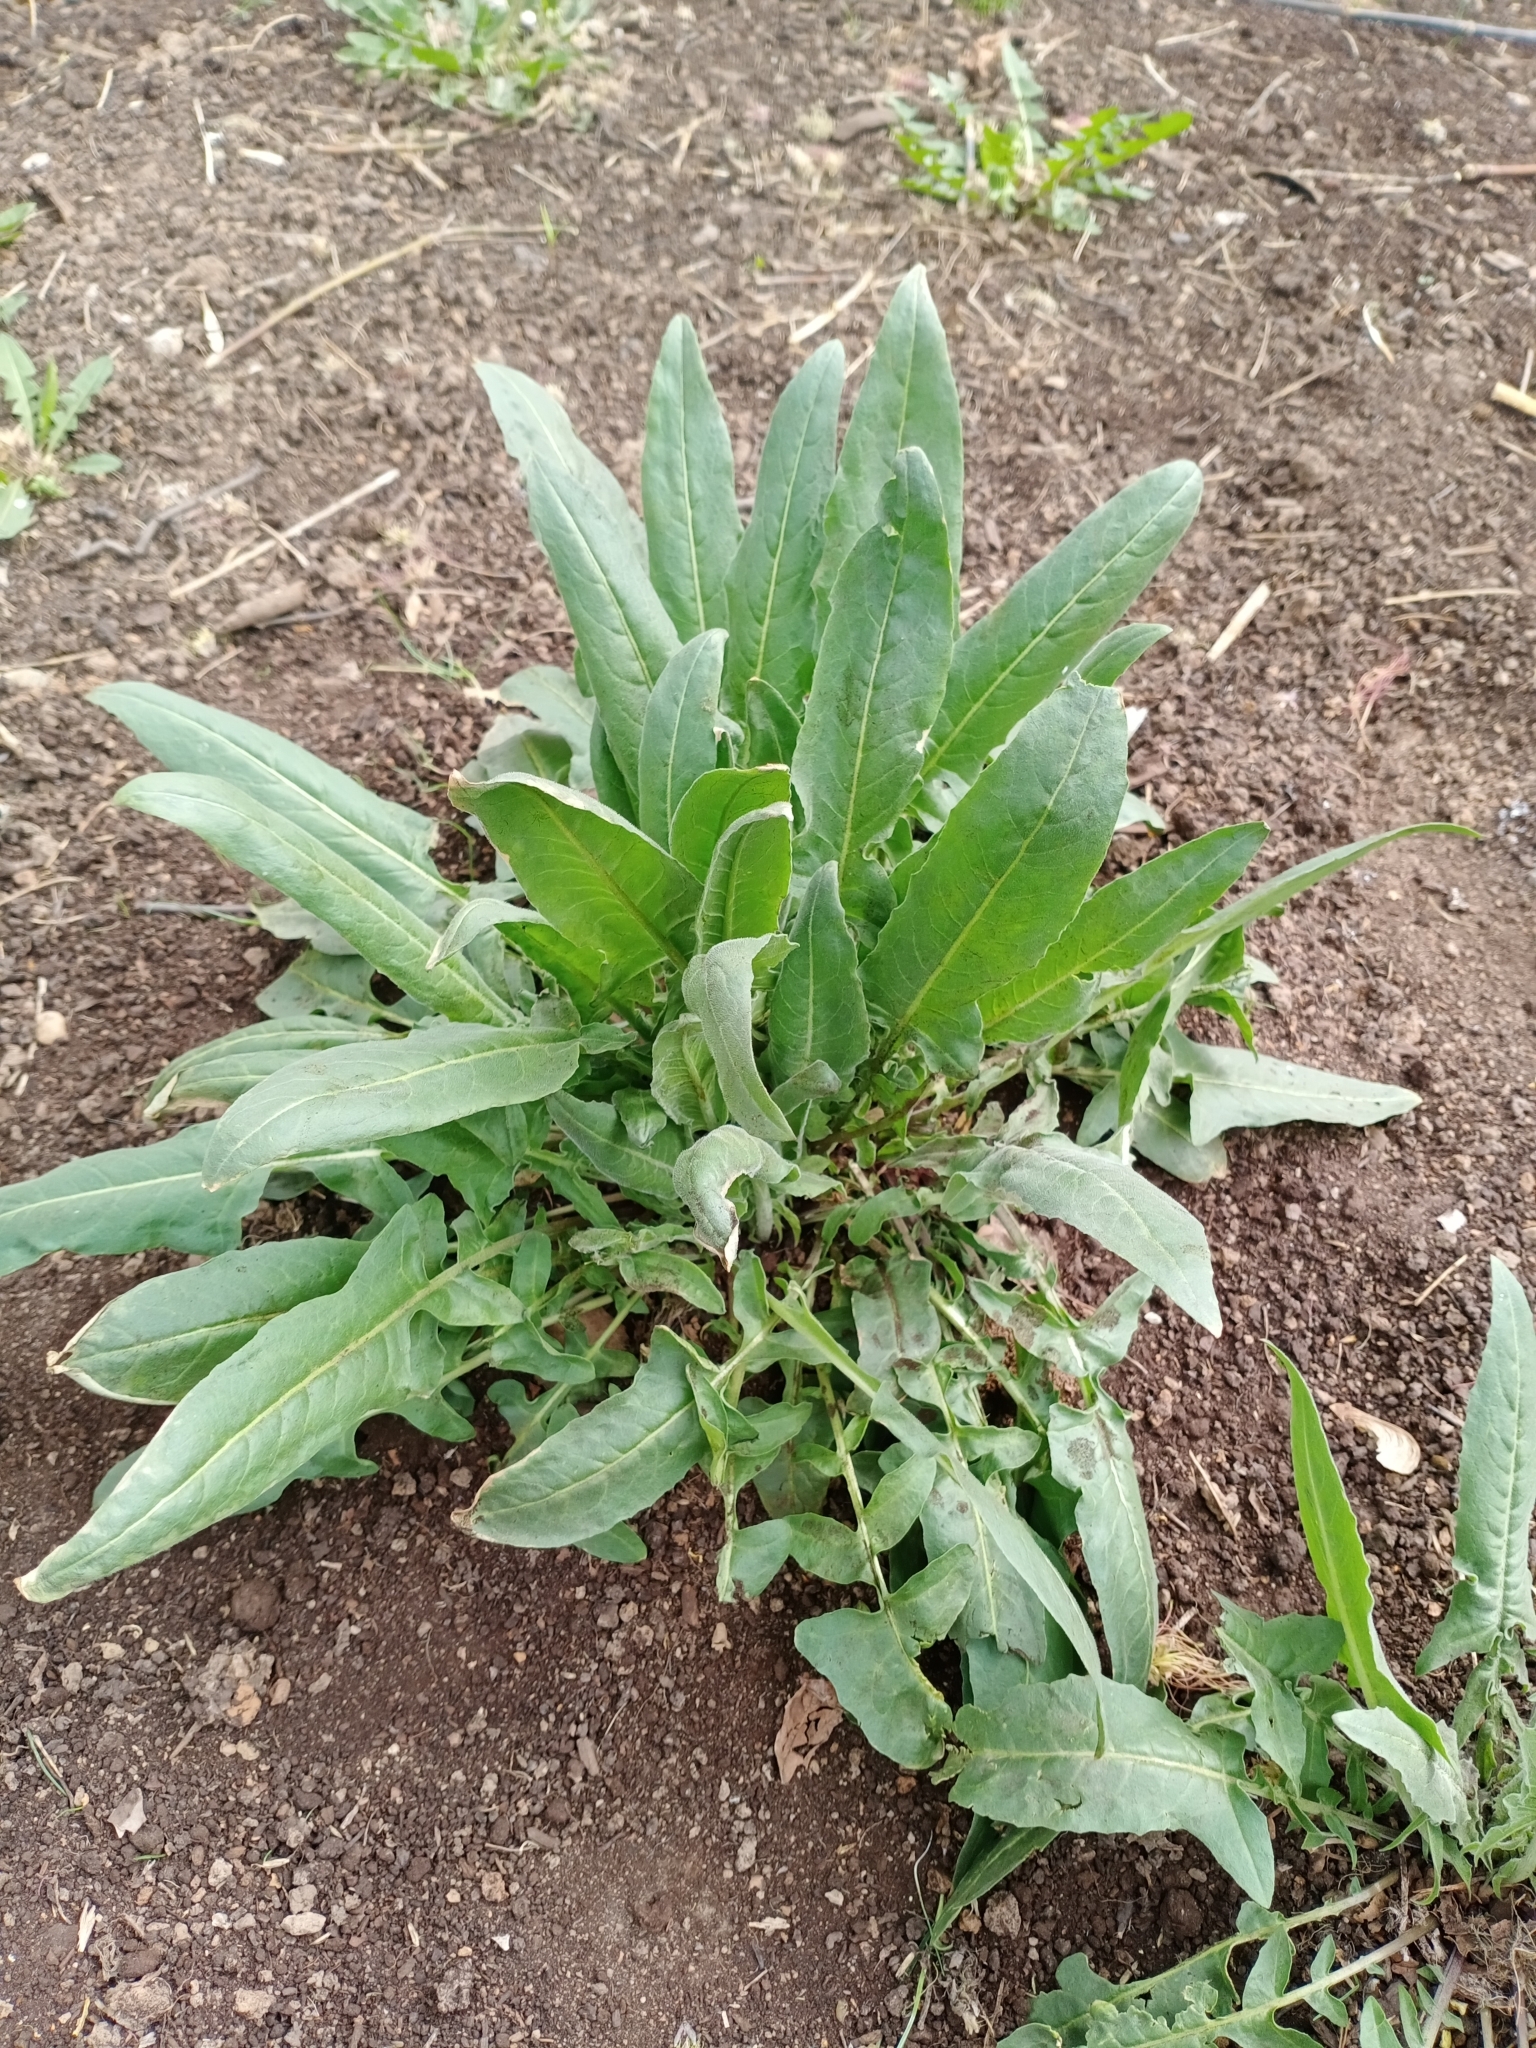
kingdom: Plantae
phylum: Tracheophyta
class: Magnoliopsida
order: Brassicales
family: Brassicaceae
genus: Bunias
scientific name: Bunias orientalis
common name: Warty-cabbage
